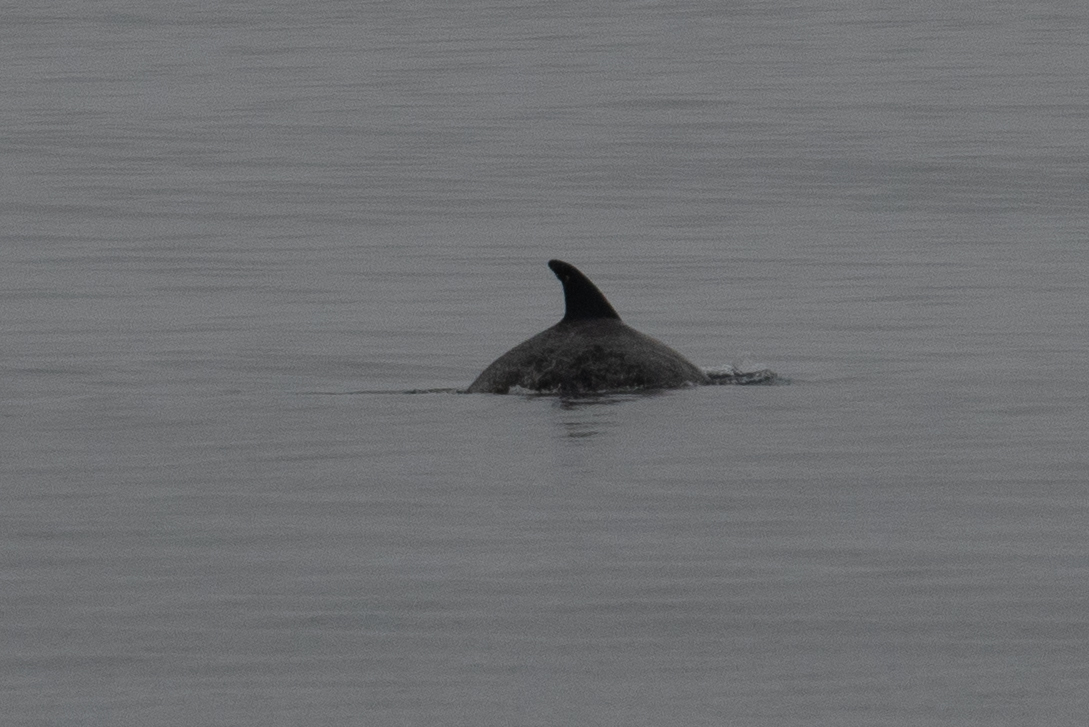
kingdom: Animalia
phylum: Chordata
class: Mammalia
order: Cetacea
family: Delphinidae
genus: Grampus
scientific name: Grampus griseus
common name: Risso's dolphin
